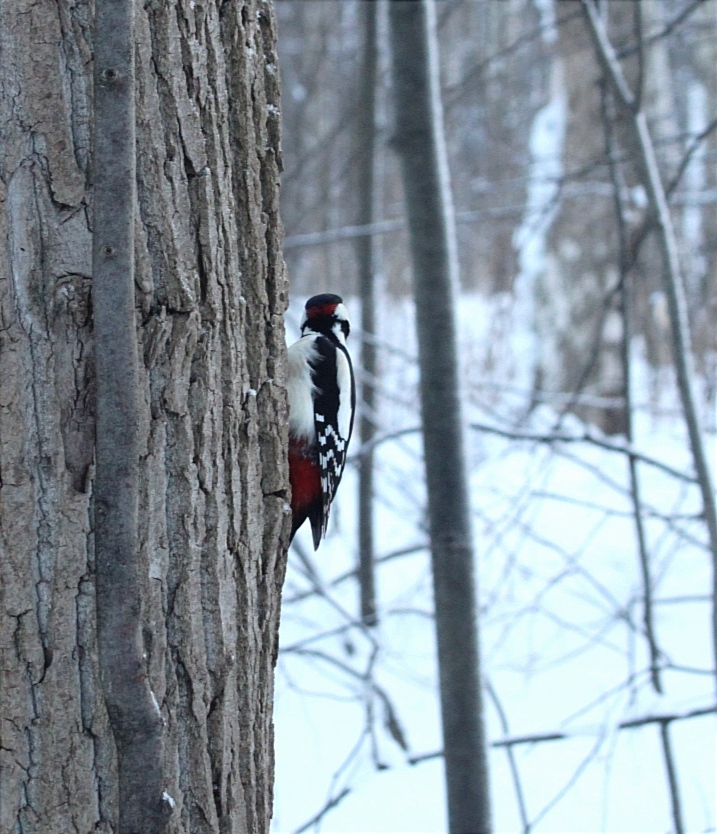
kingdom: Animalia
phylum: Chordata
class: Aves
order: Piciformes
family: Picidae
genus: Dendrocopos
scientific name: Dendrocopos major
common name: Great spotted woodpecker
